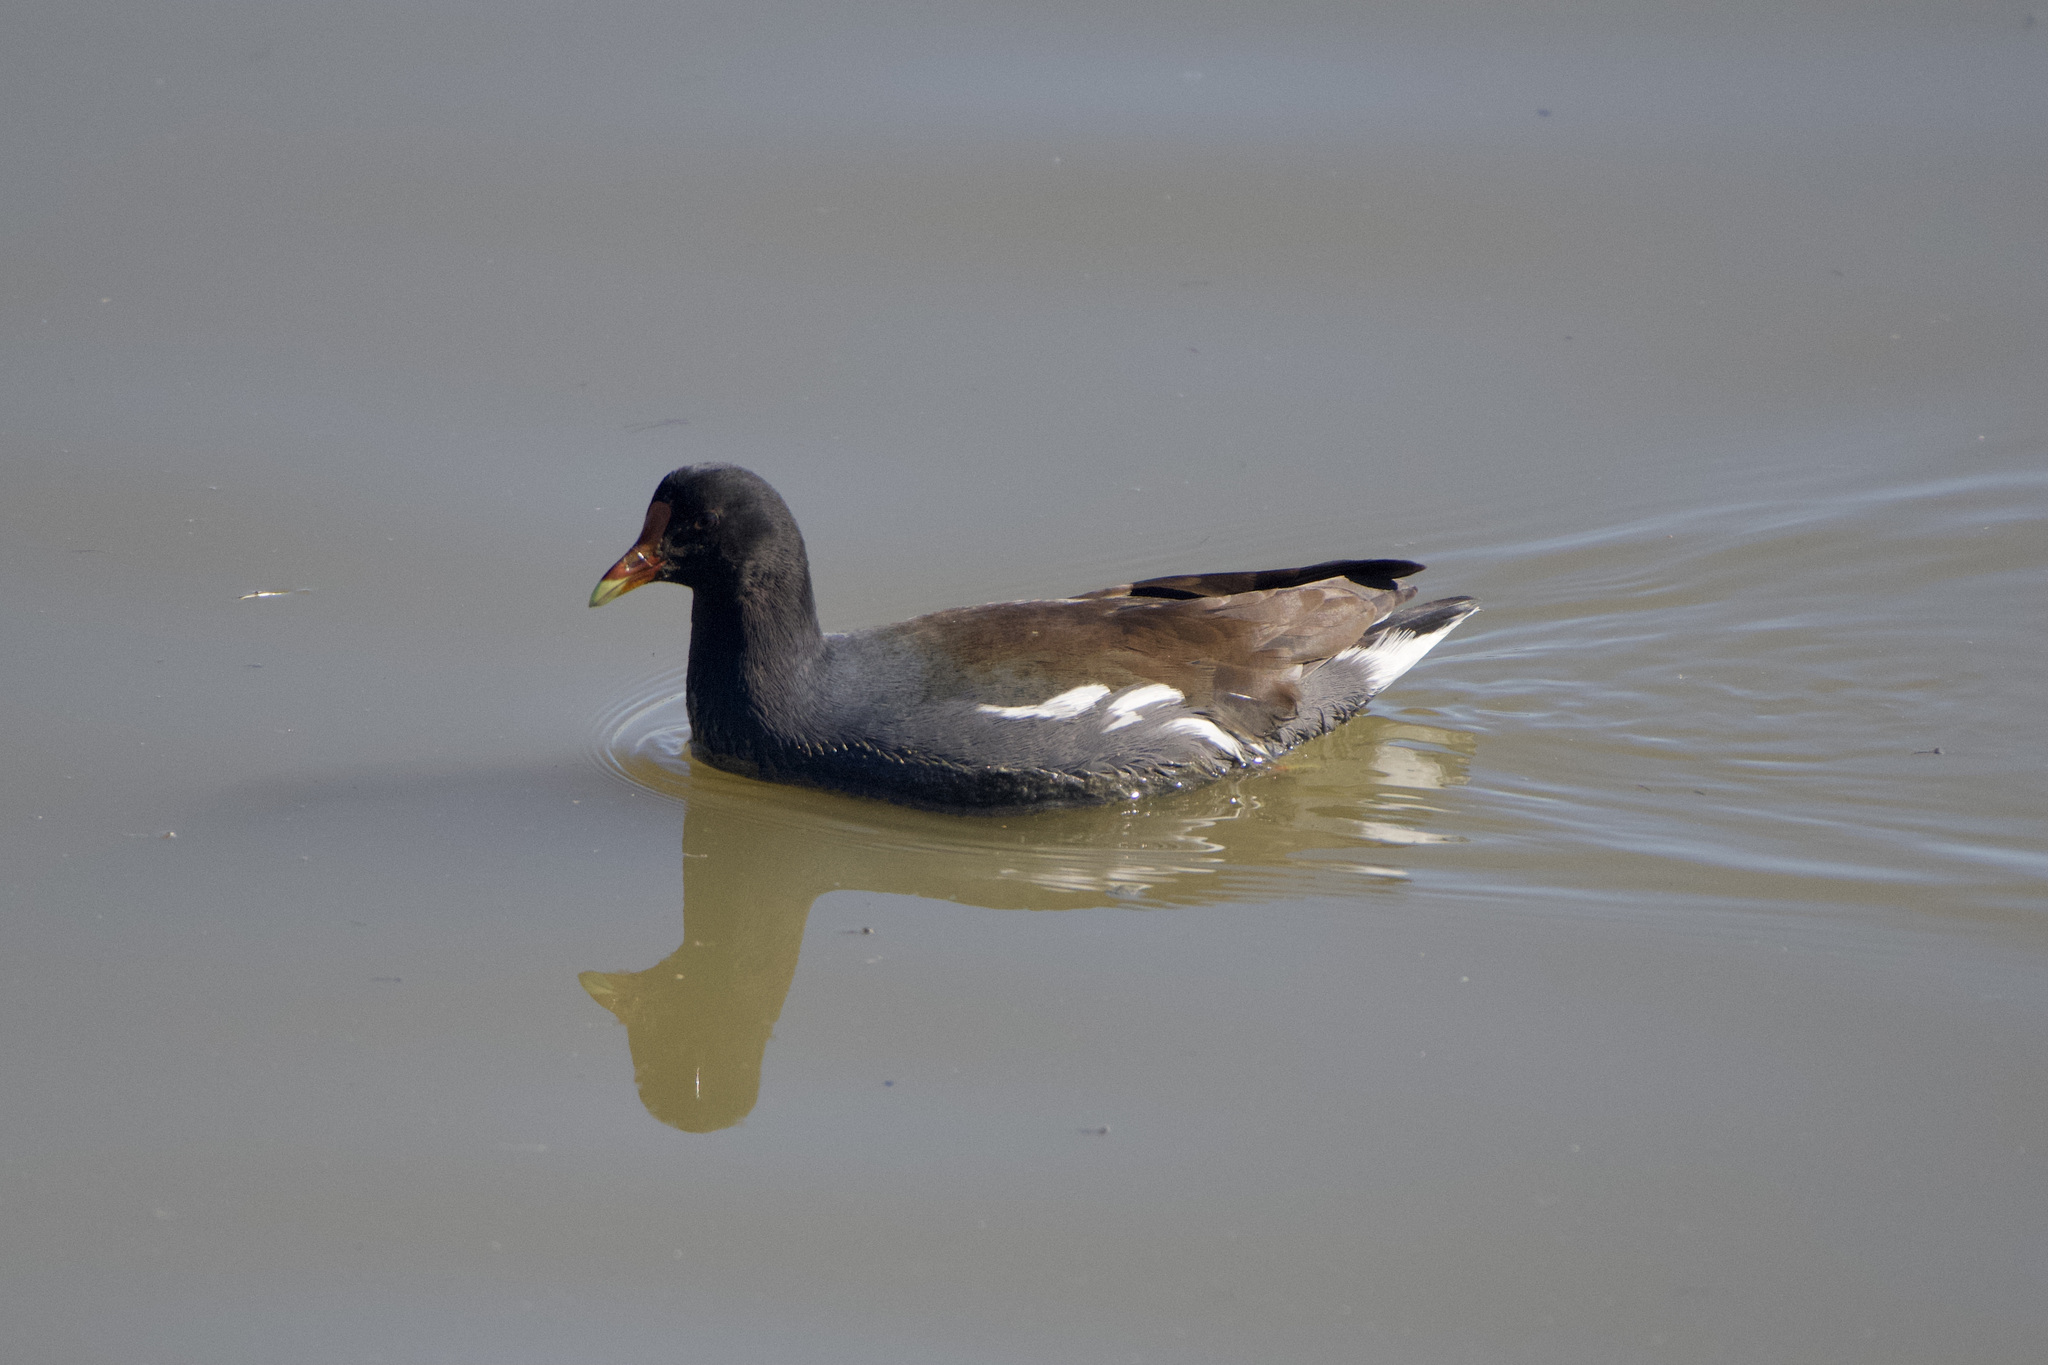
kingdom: Animalia
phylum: Chordata
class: Aves
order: Gruiformes
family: Rallidae
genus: Gallinula
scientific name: Gallinula chloropus
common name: Common moorhen
